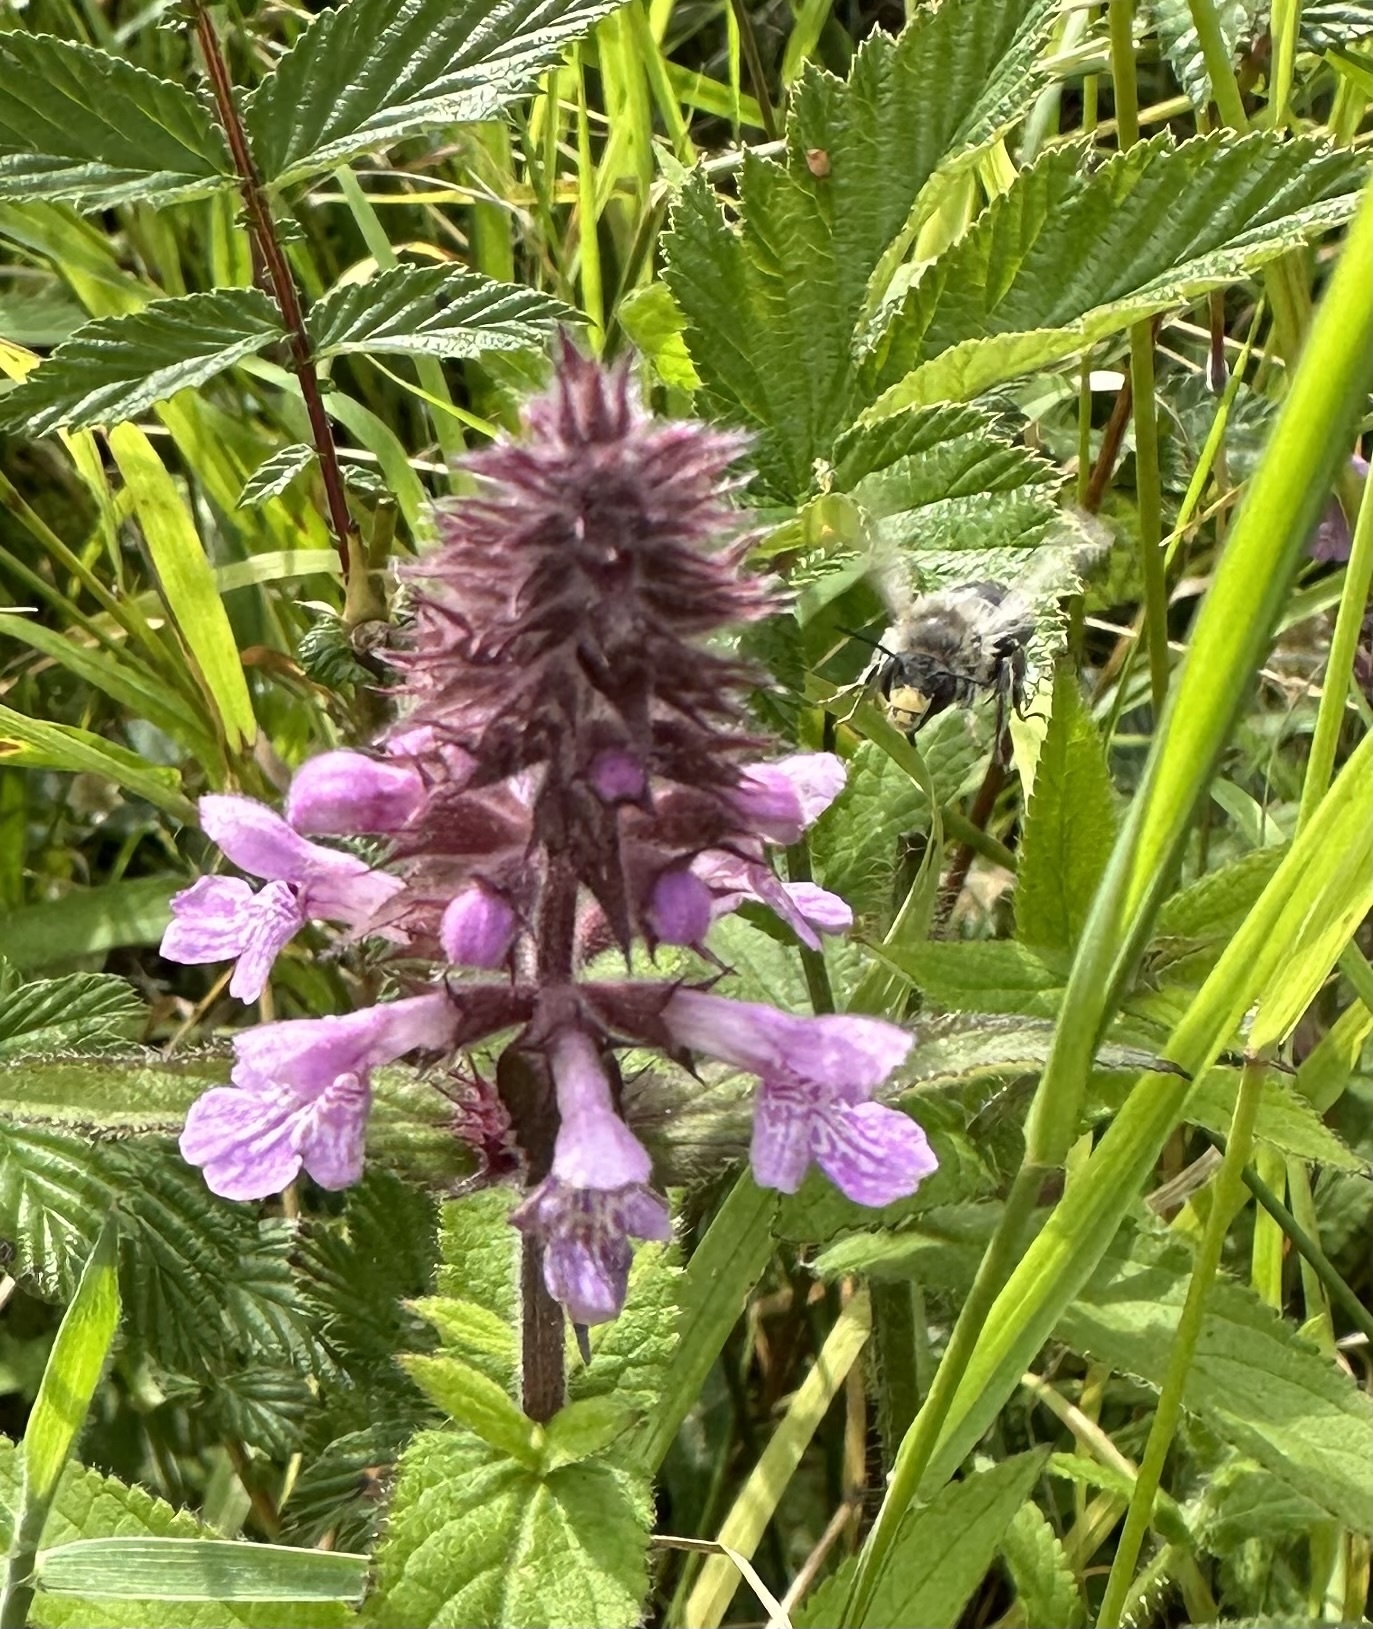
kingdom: Animalia
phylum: Arthropoda
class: Insecta
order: Hymenoptera
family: Apidae
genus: Anthophora
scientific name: Anthophora furcata
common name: Fork-tailed flower bee
